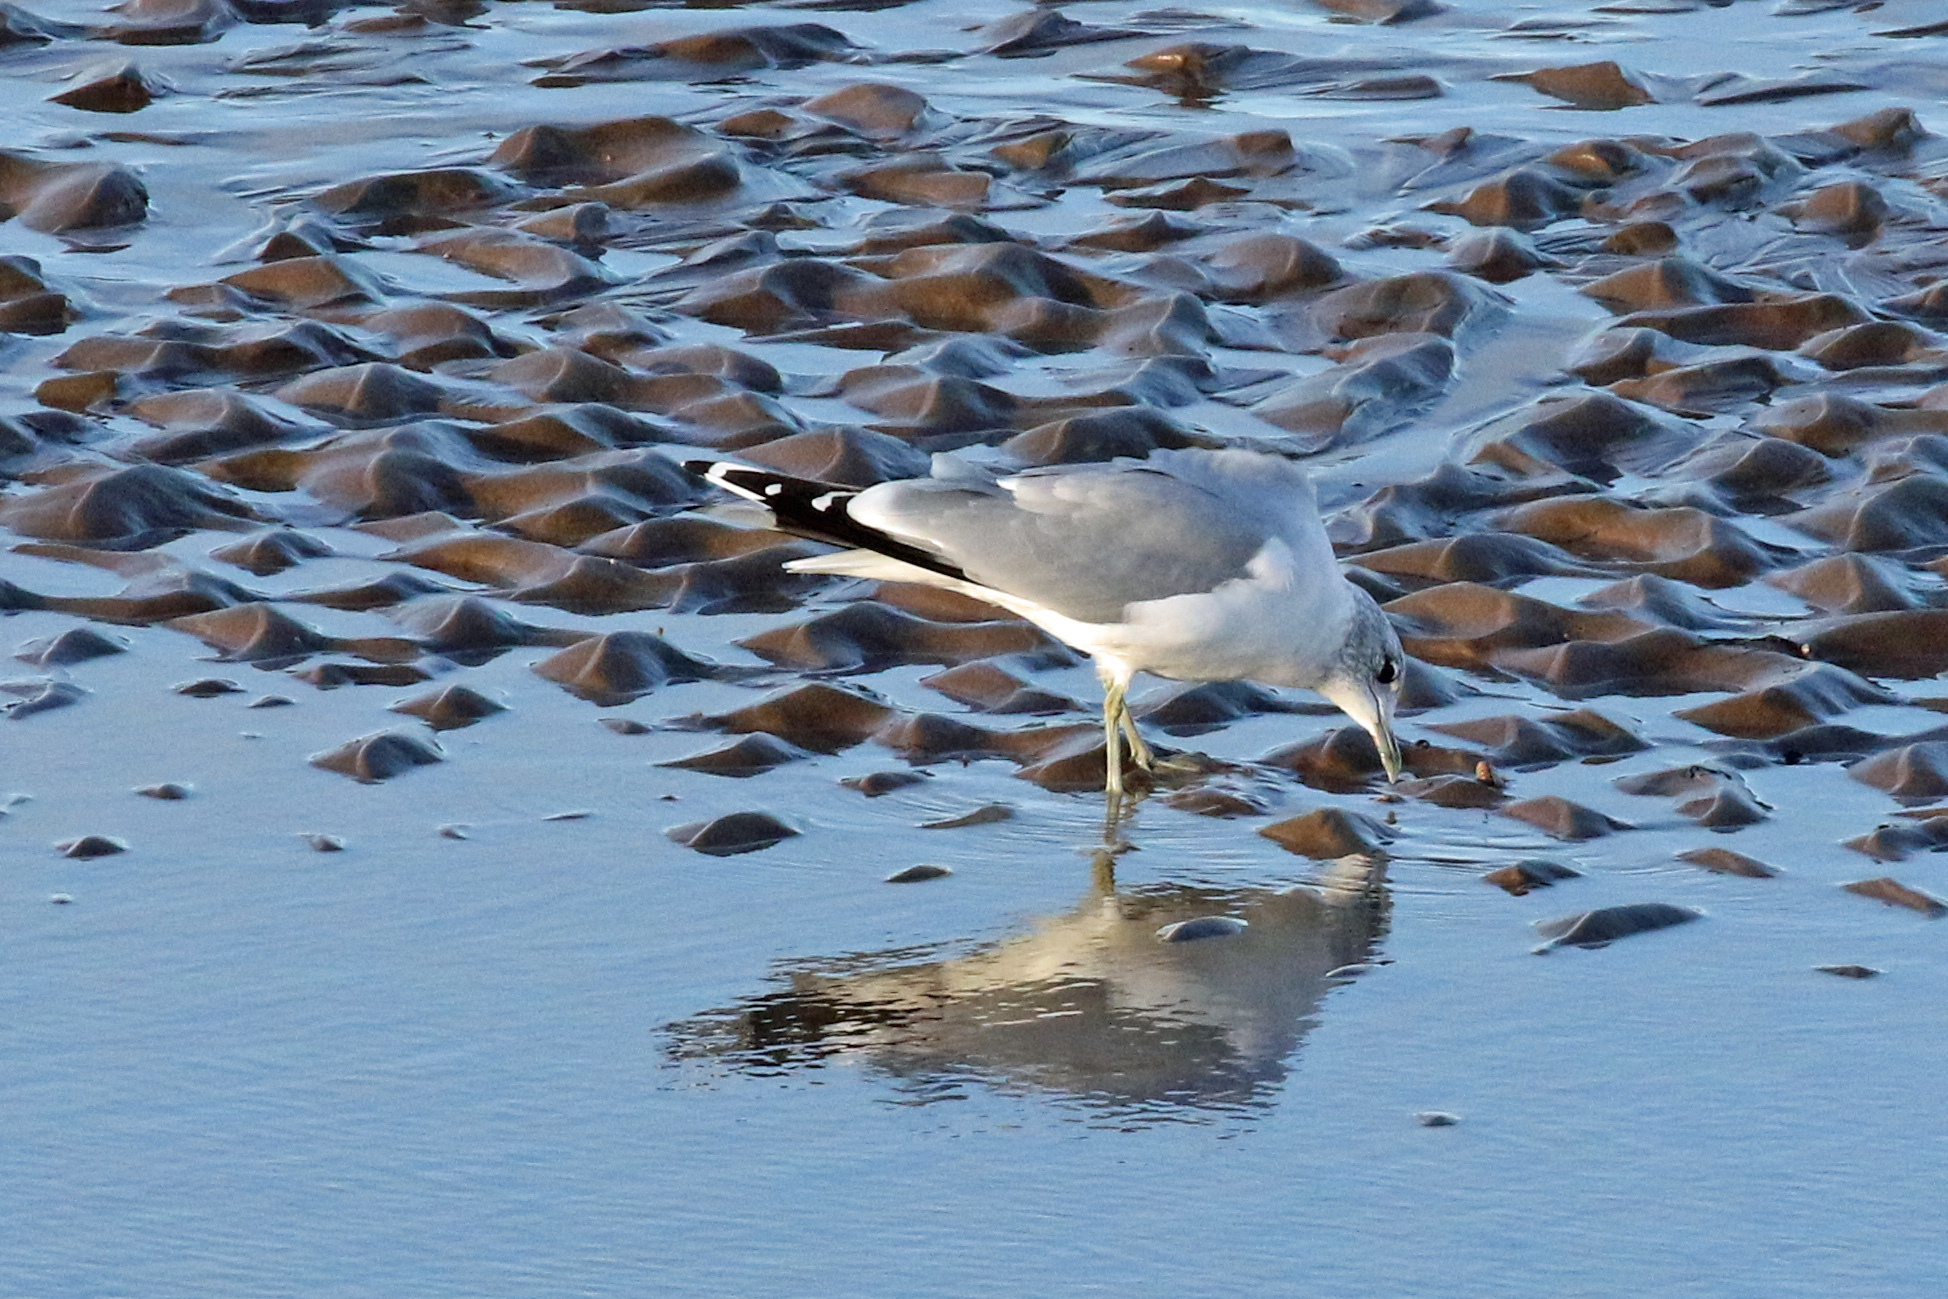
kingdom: Animalia
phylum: Chordata
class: Aves
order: Charadriiformes
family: Laridae
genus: Larus
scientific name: Larus canus
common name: Mew gull
